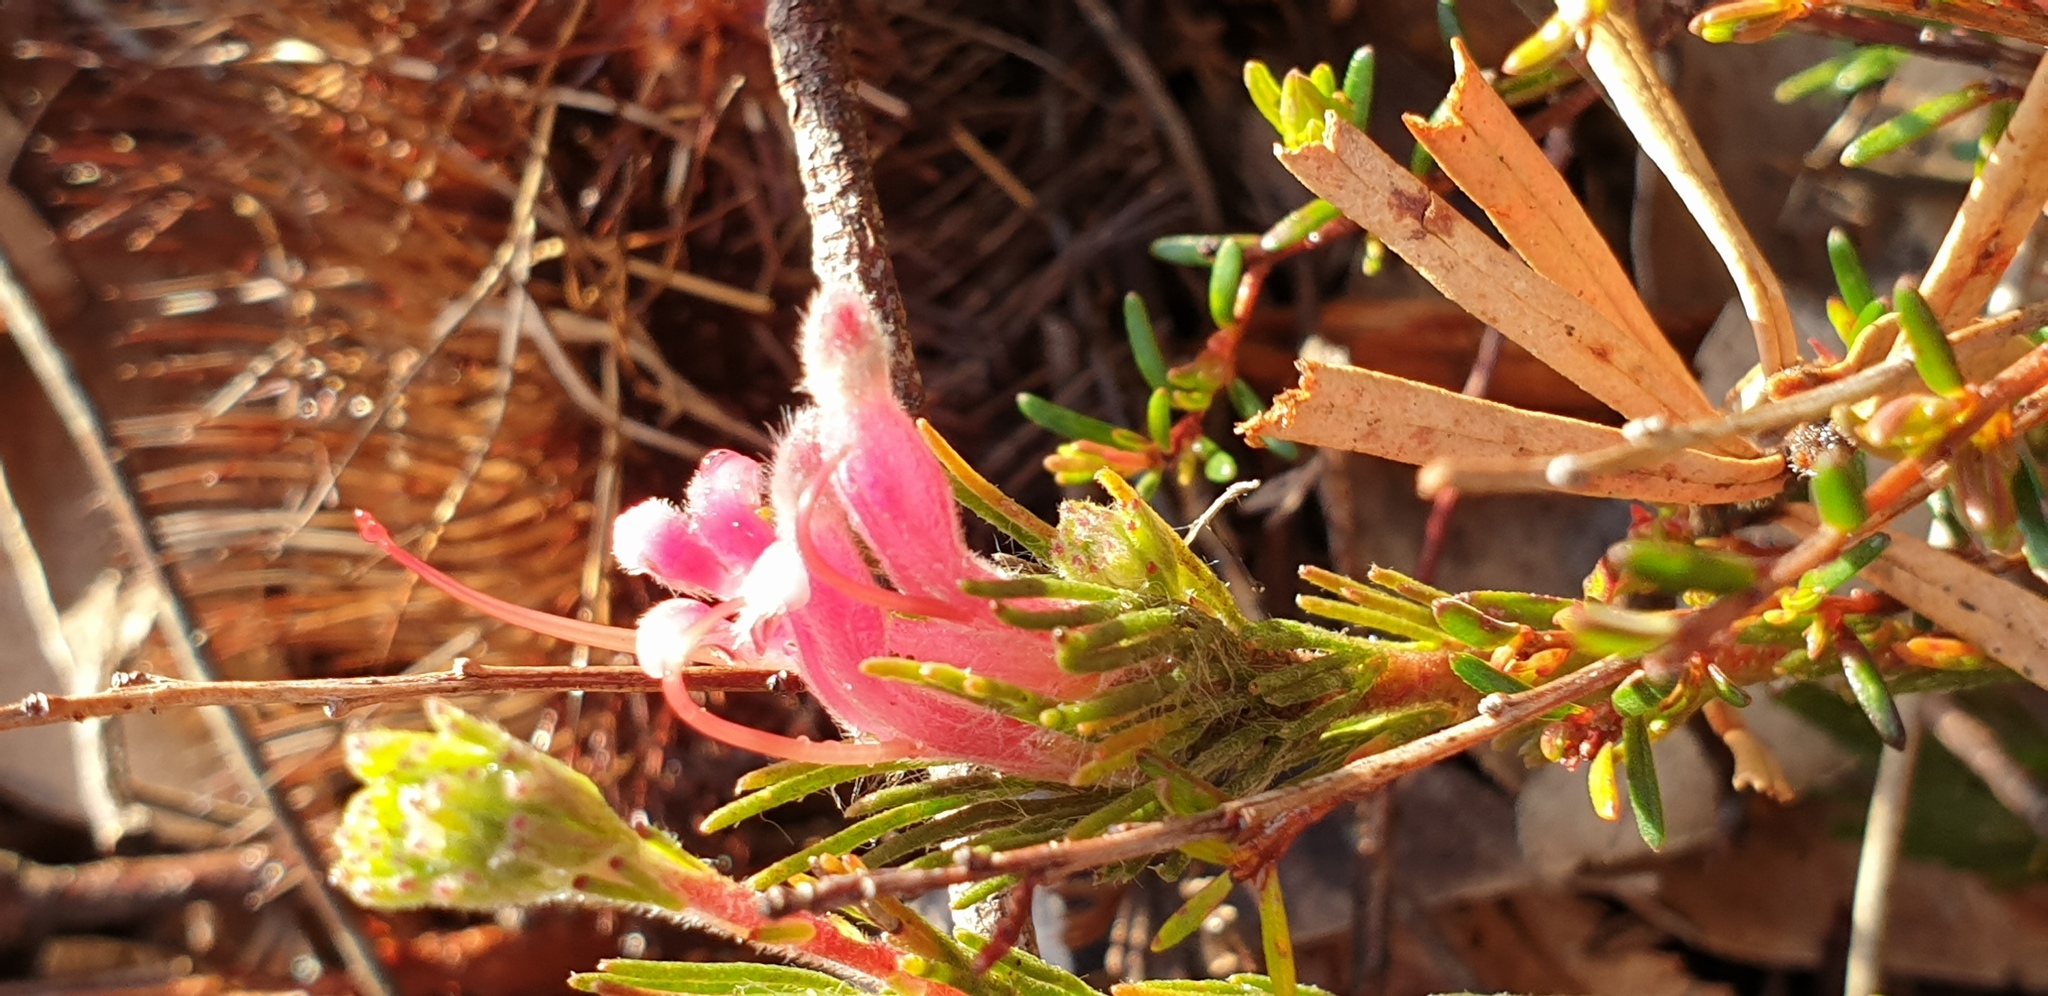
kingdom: Plantae
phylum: Tracheophyta
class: Magnoliopsida
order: Proteales
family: Proteaceae
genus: Adenanthos
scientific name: Adenanthos macropodianus
